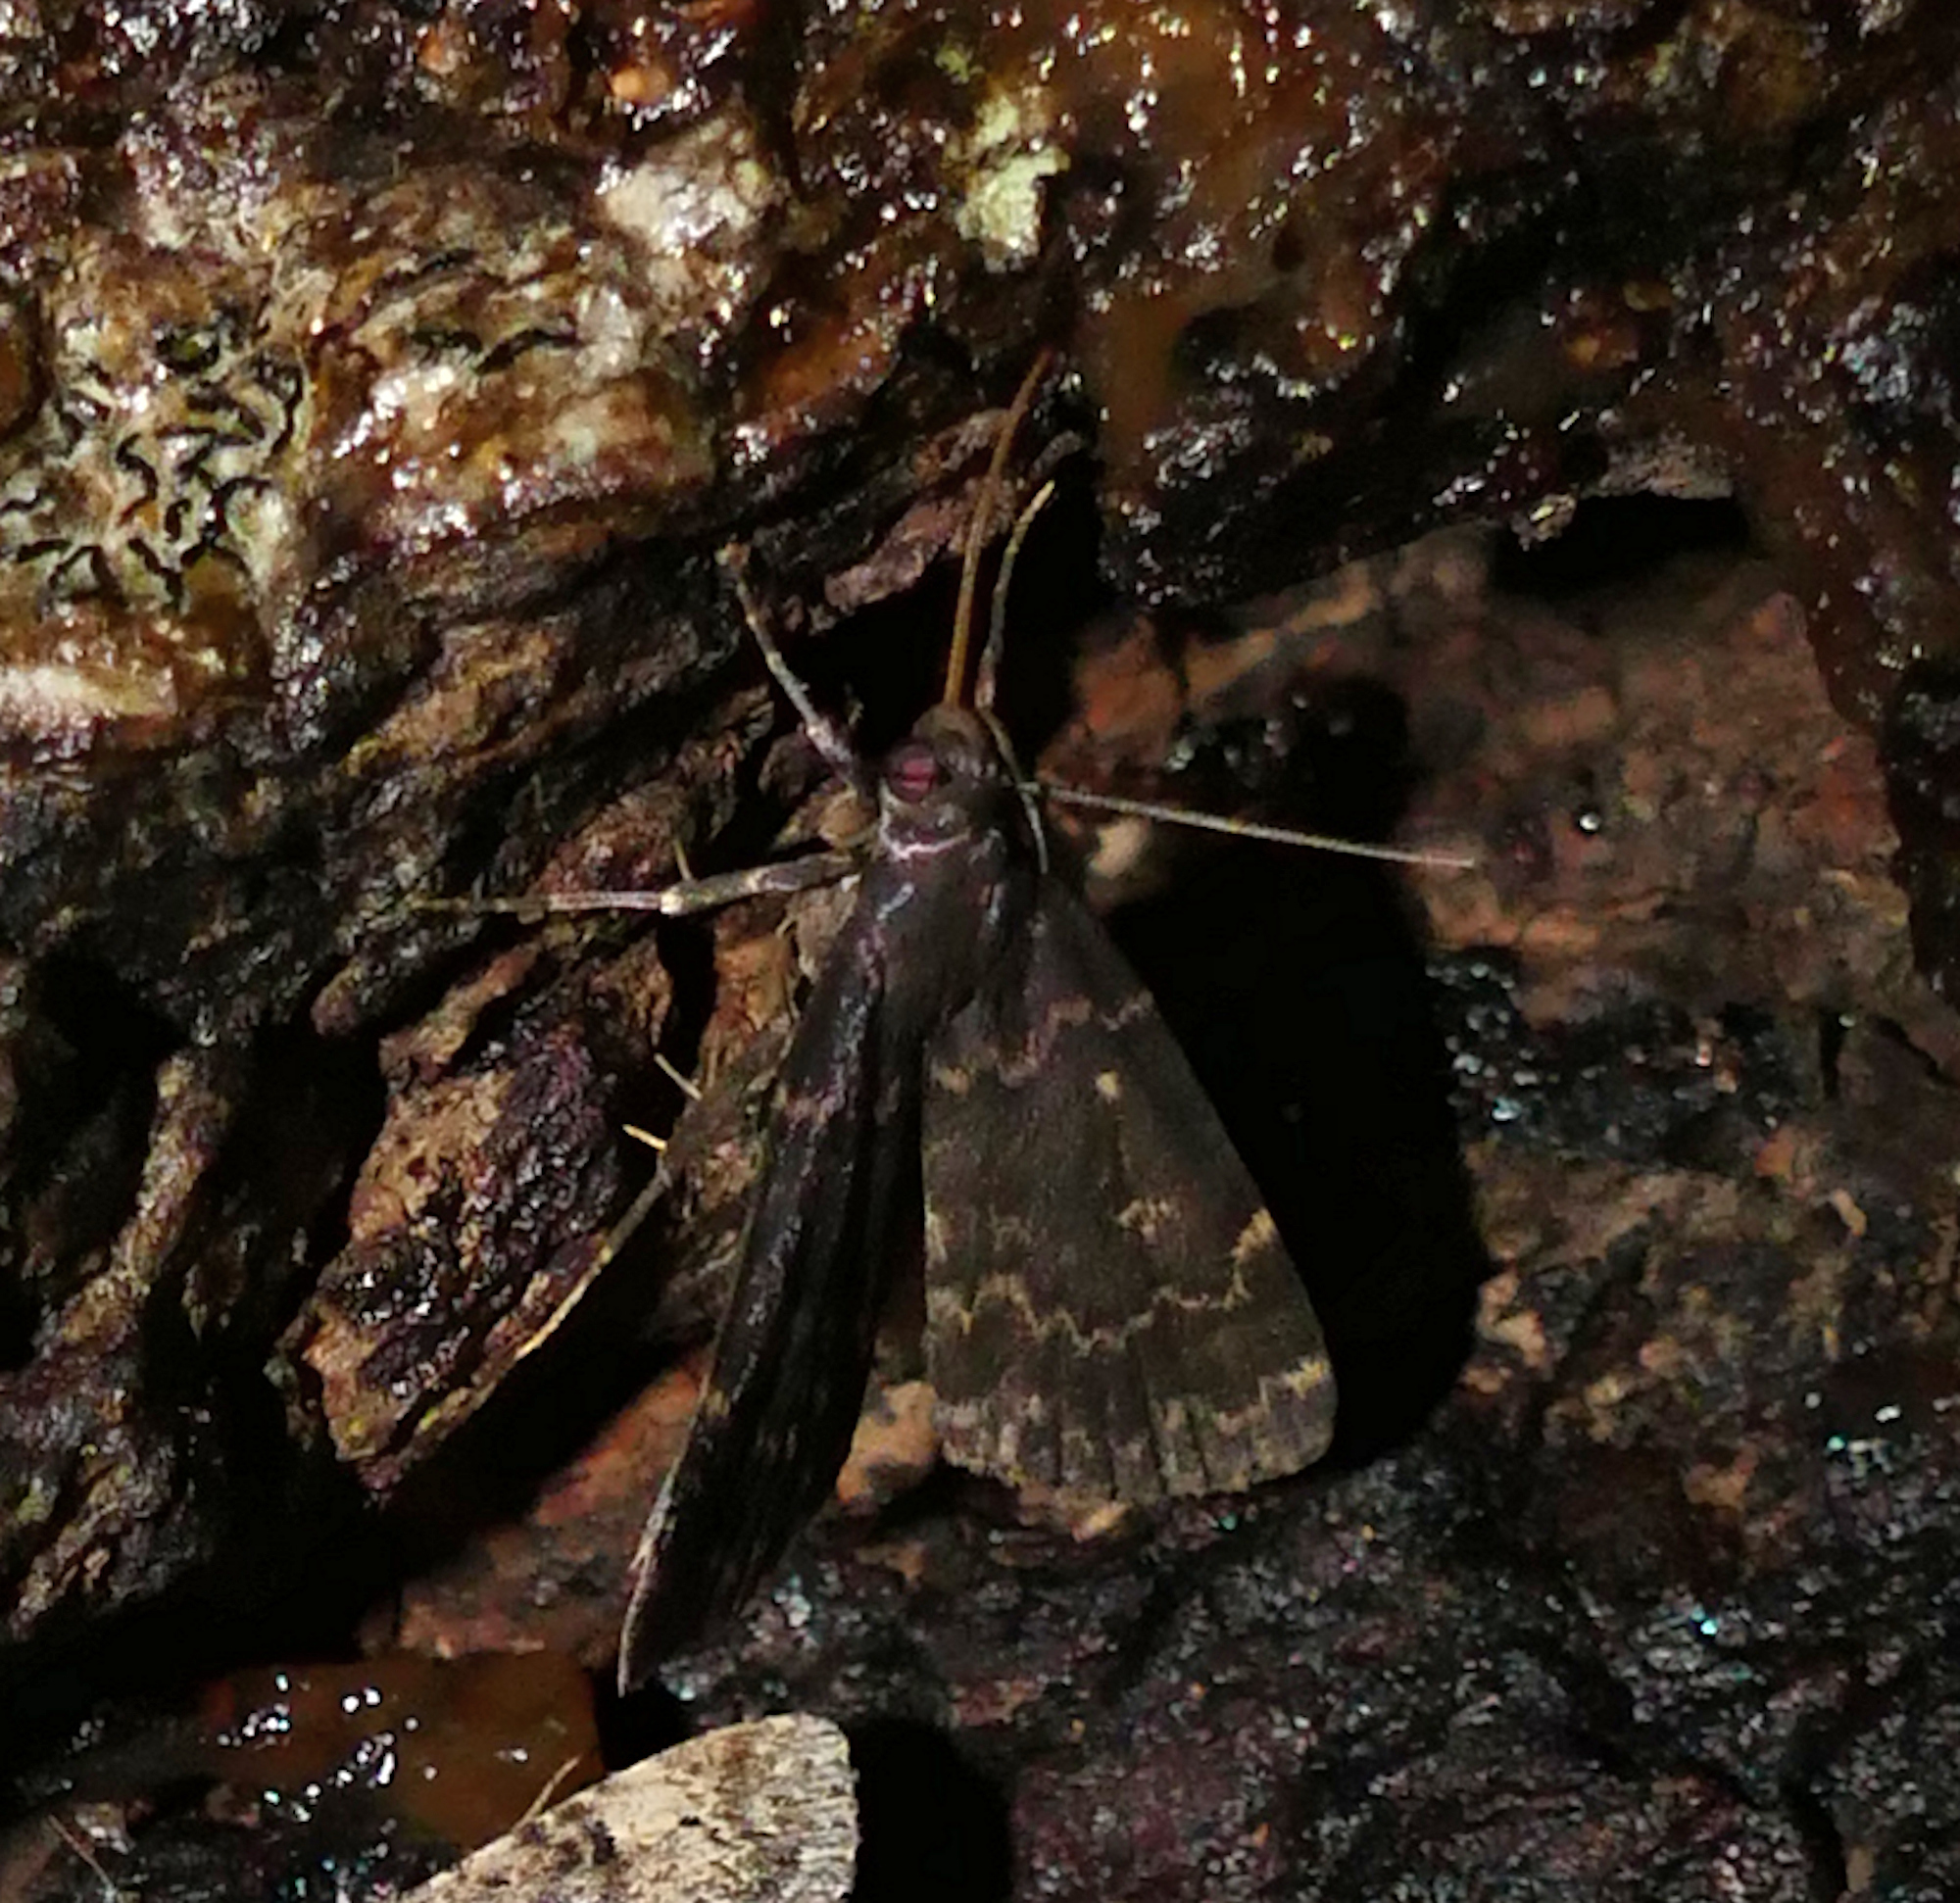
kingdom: Animalia
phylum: Arthropoda
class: Insecta
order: Lepidoptera
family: Erebidae
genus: Idia
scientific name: Idia lubricalis
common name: Twin-striped tabby
